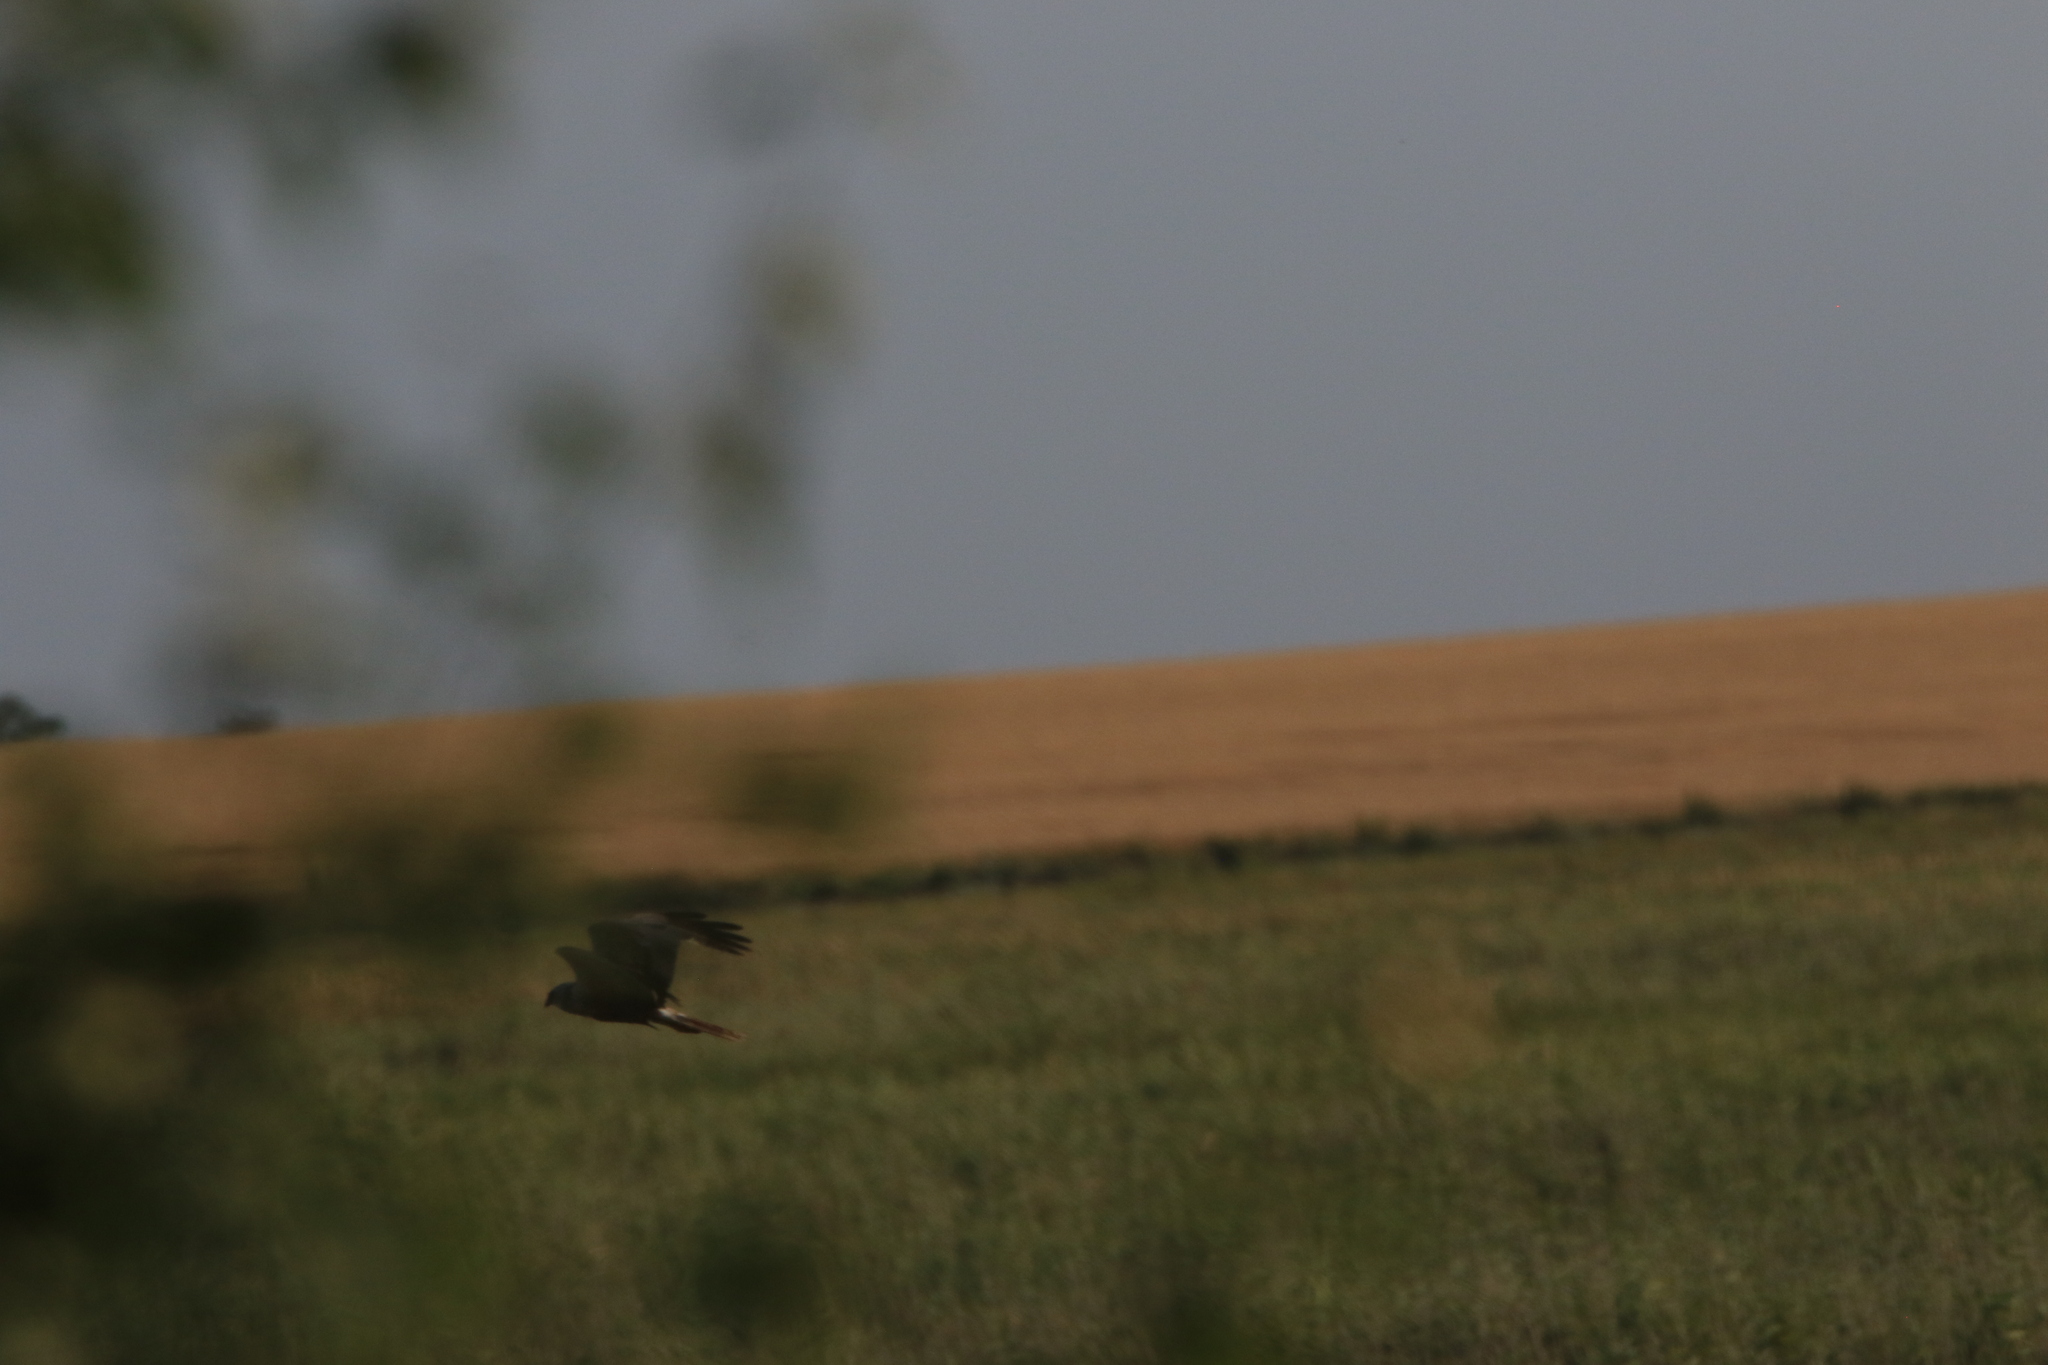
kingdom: Animalia
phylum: Chordata
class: Aves
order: Accipitriformes
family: Accipitridae
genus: Circus
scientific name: Circus aeruginosus
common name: Western marsh harrier
